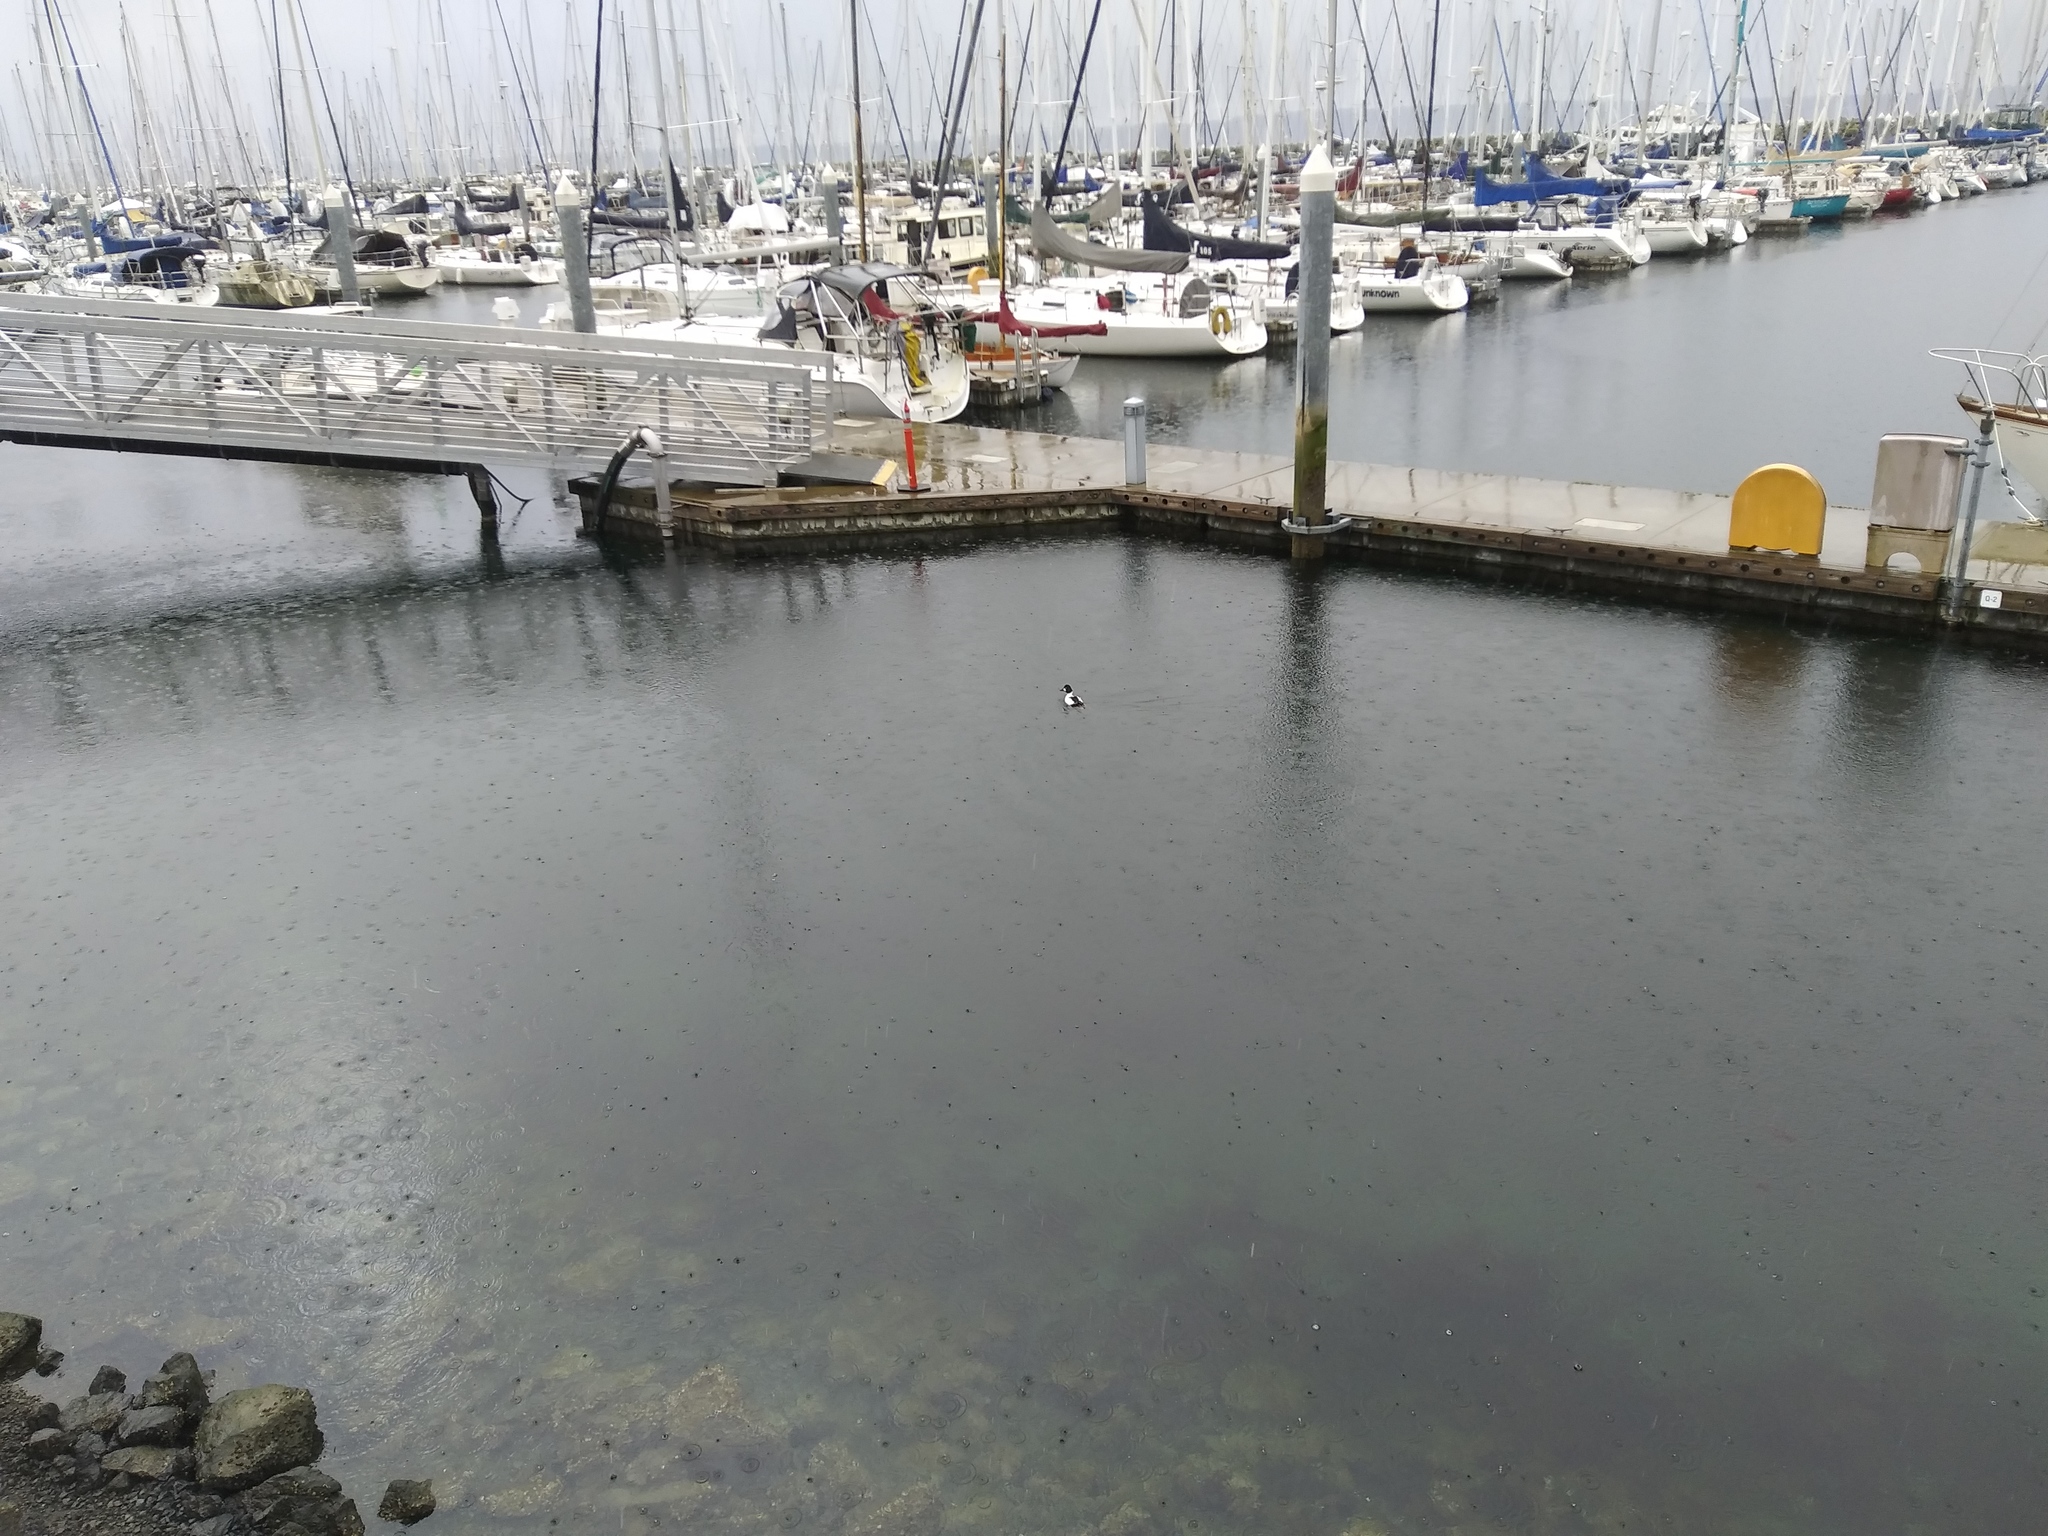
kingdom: Animalia
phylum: Chordata
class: Aves
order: Anseriformes
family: Anatidae
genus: Bucephala
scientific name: Bucephala islandica
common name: Barrow's goldeneye
